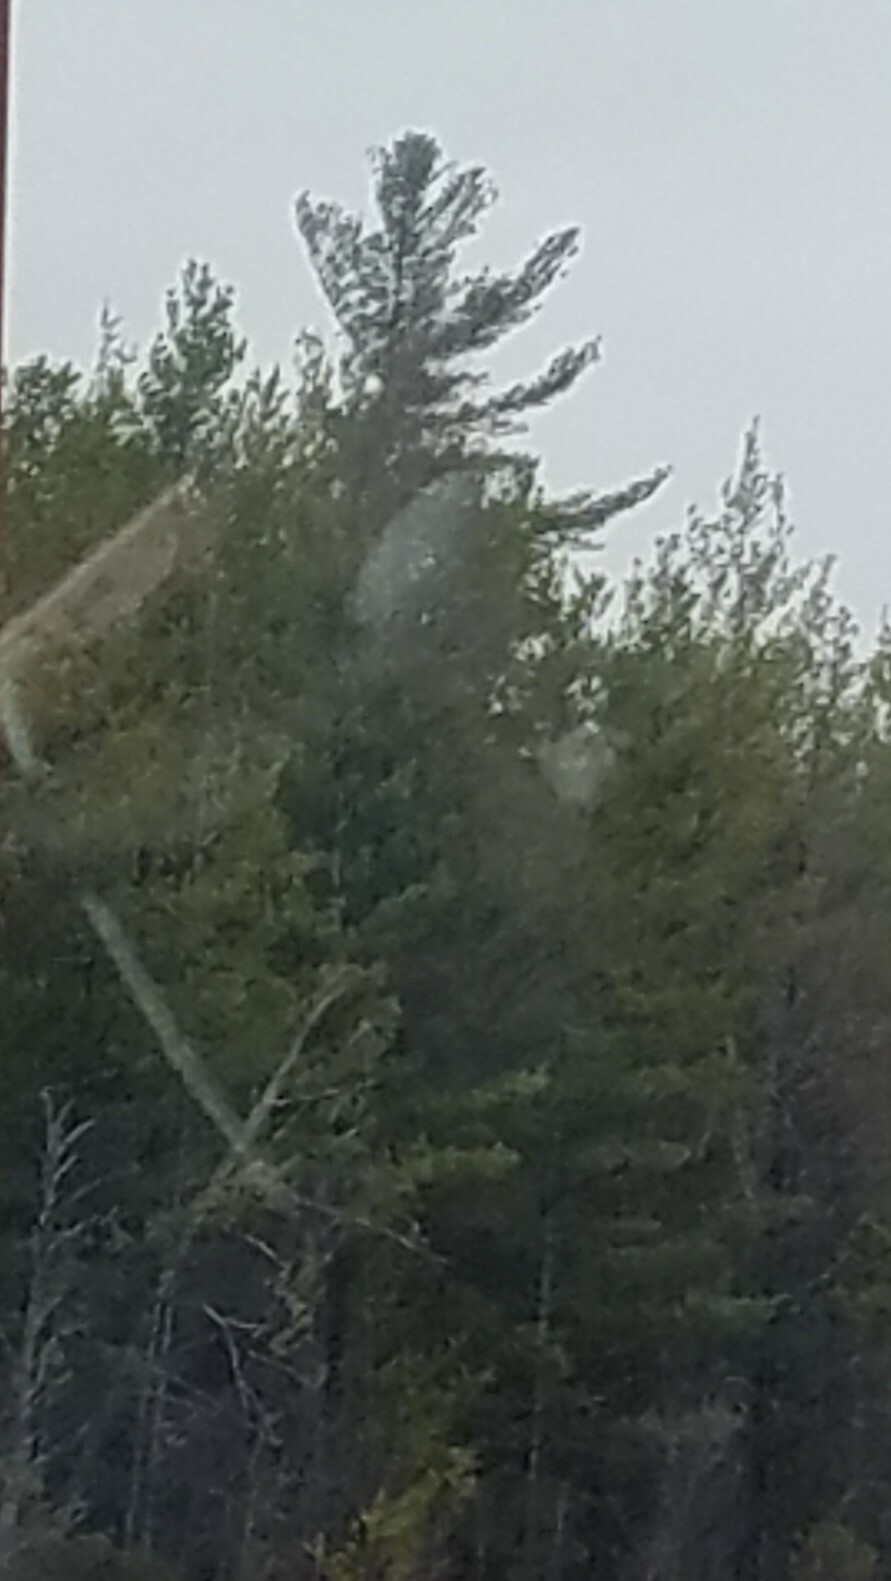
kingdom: Plantae
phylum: Tracheophyta
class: Pinopsida
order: Pinales
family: Pinaceae
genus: Pinus
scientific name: Pinus strobus
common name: Weymouth pine
